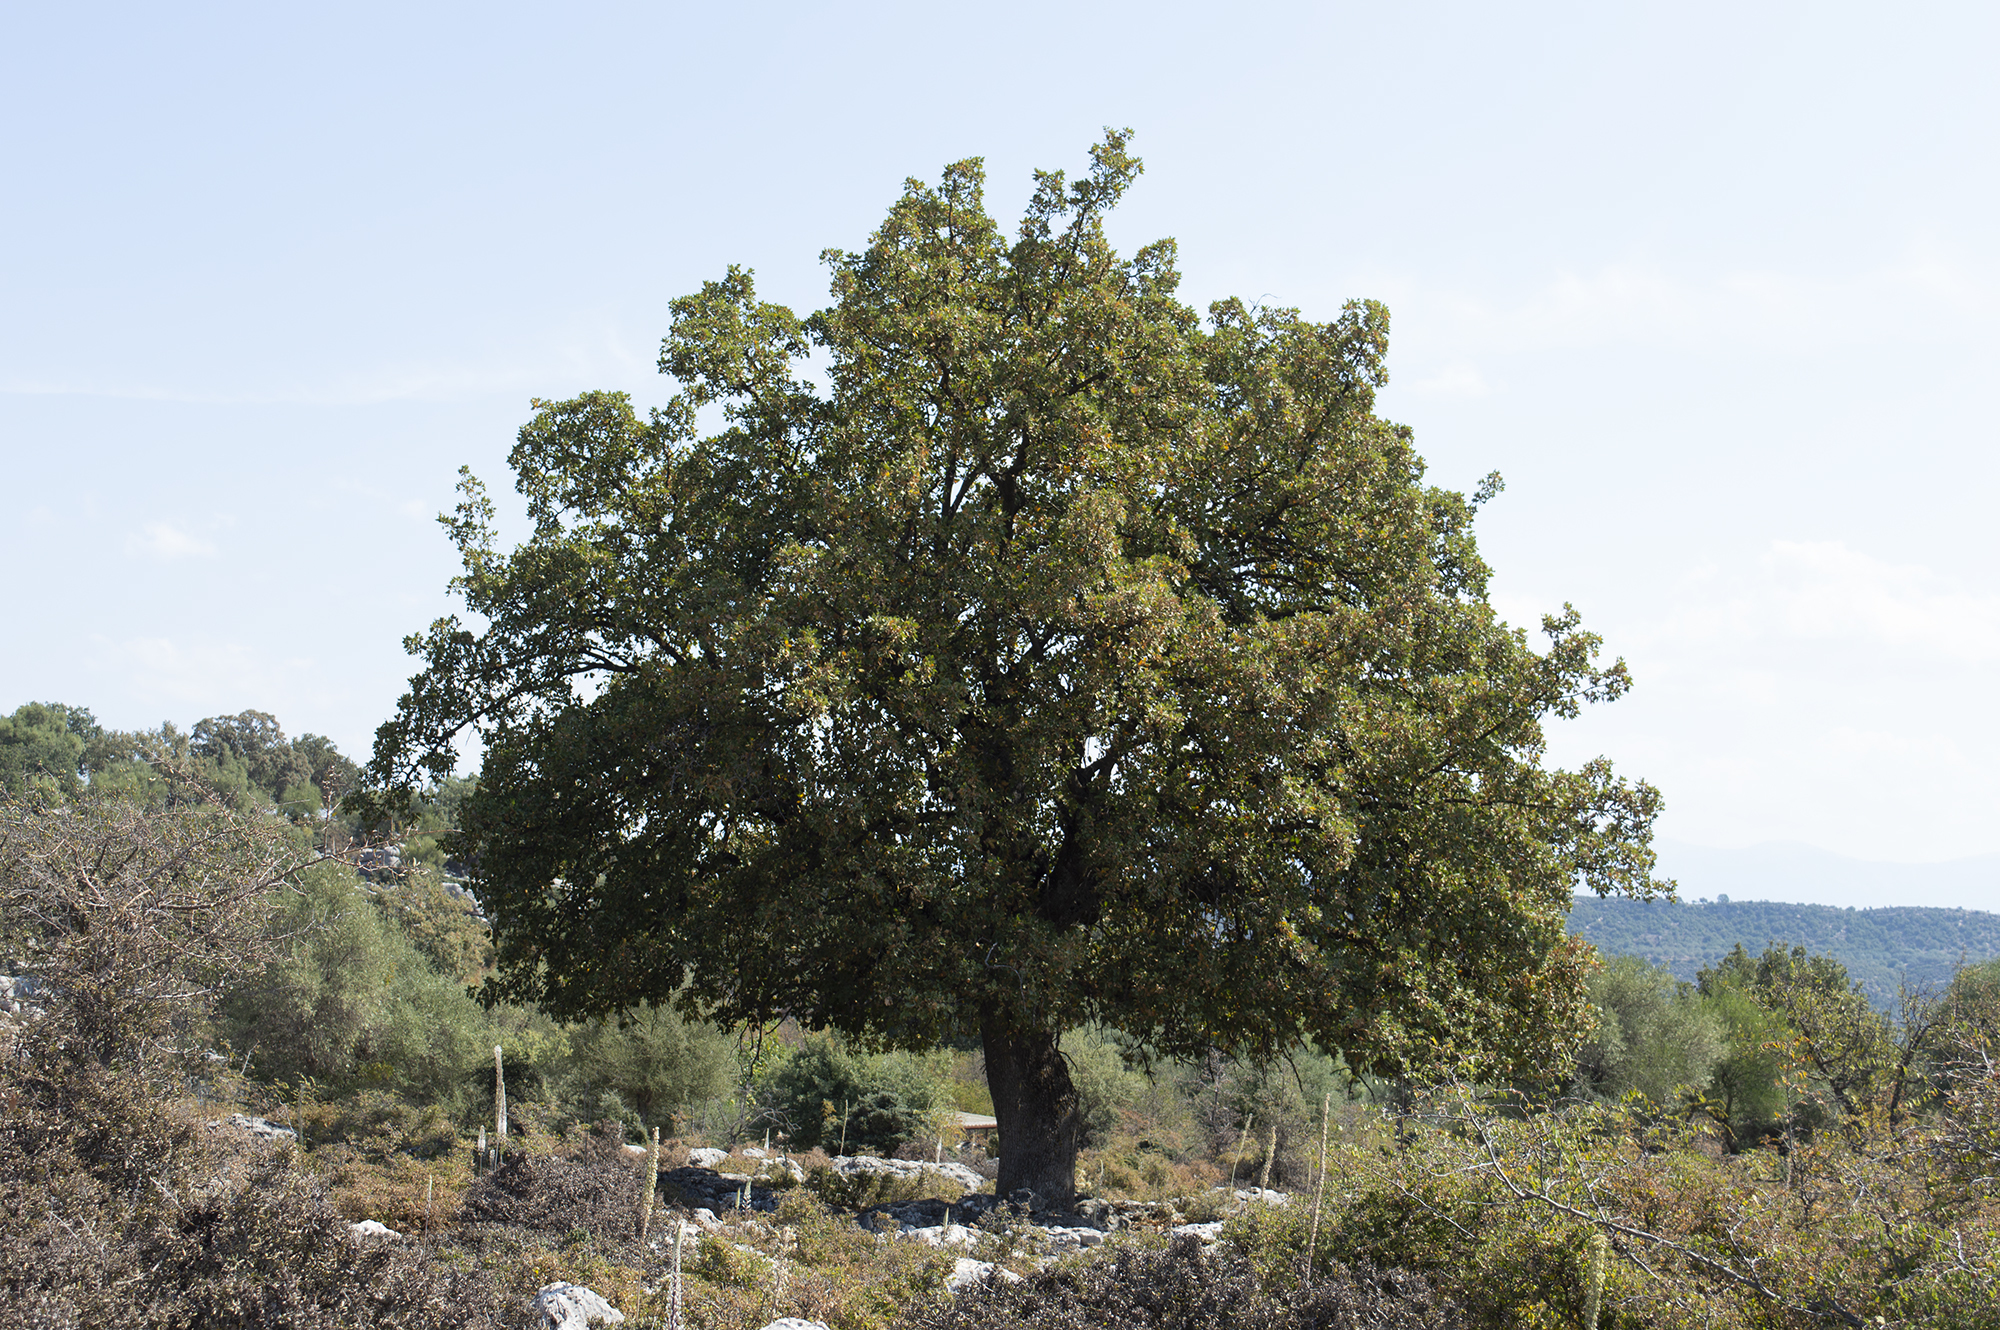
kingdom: Plantae
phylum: Tracheophyta
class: Magnoliopsida
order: Fagales
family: Fagaceae
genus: Quercus
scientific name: Quercus ithaburensis
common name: Tabor oak
